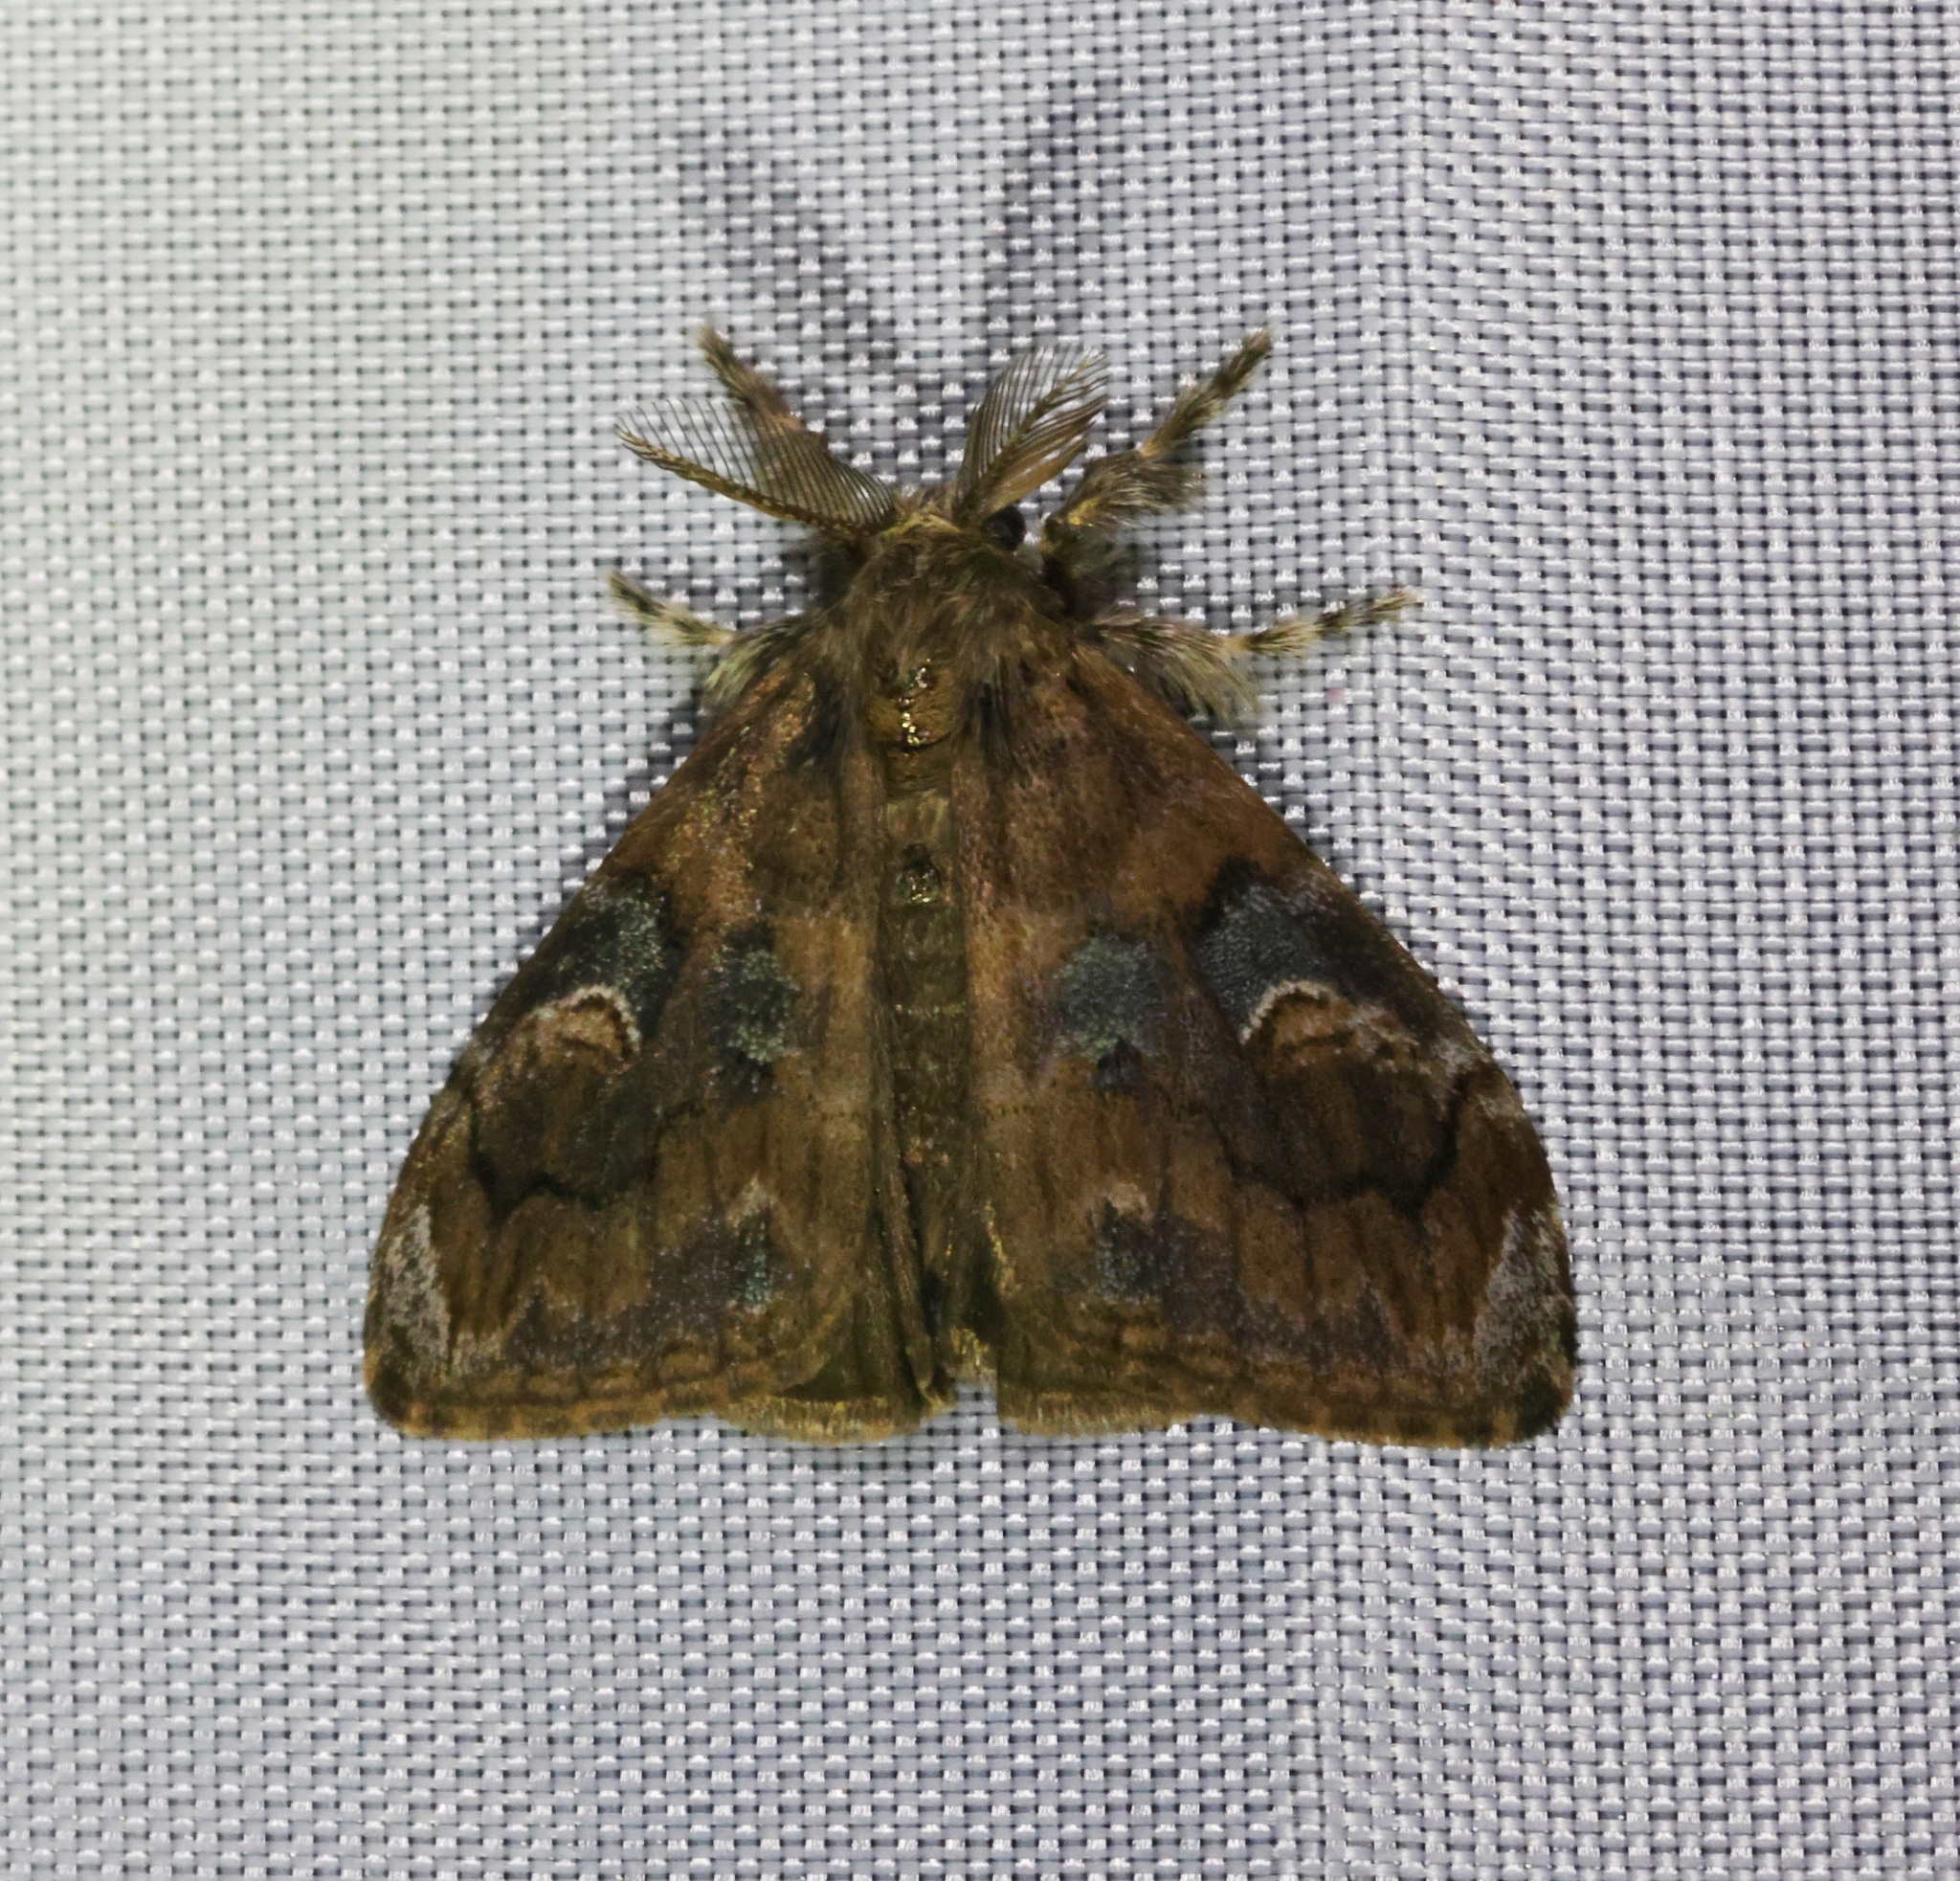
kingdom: Animalia
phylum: Arthropoda
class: Insecta
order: Lepidoptera
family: Erebidae
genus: Orgyia
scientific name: Orgyia postica
